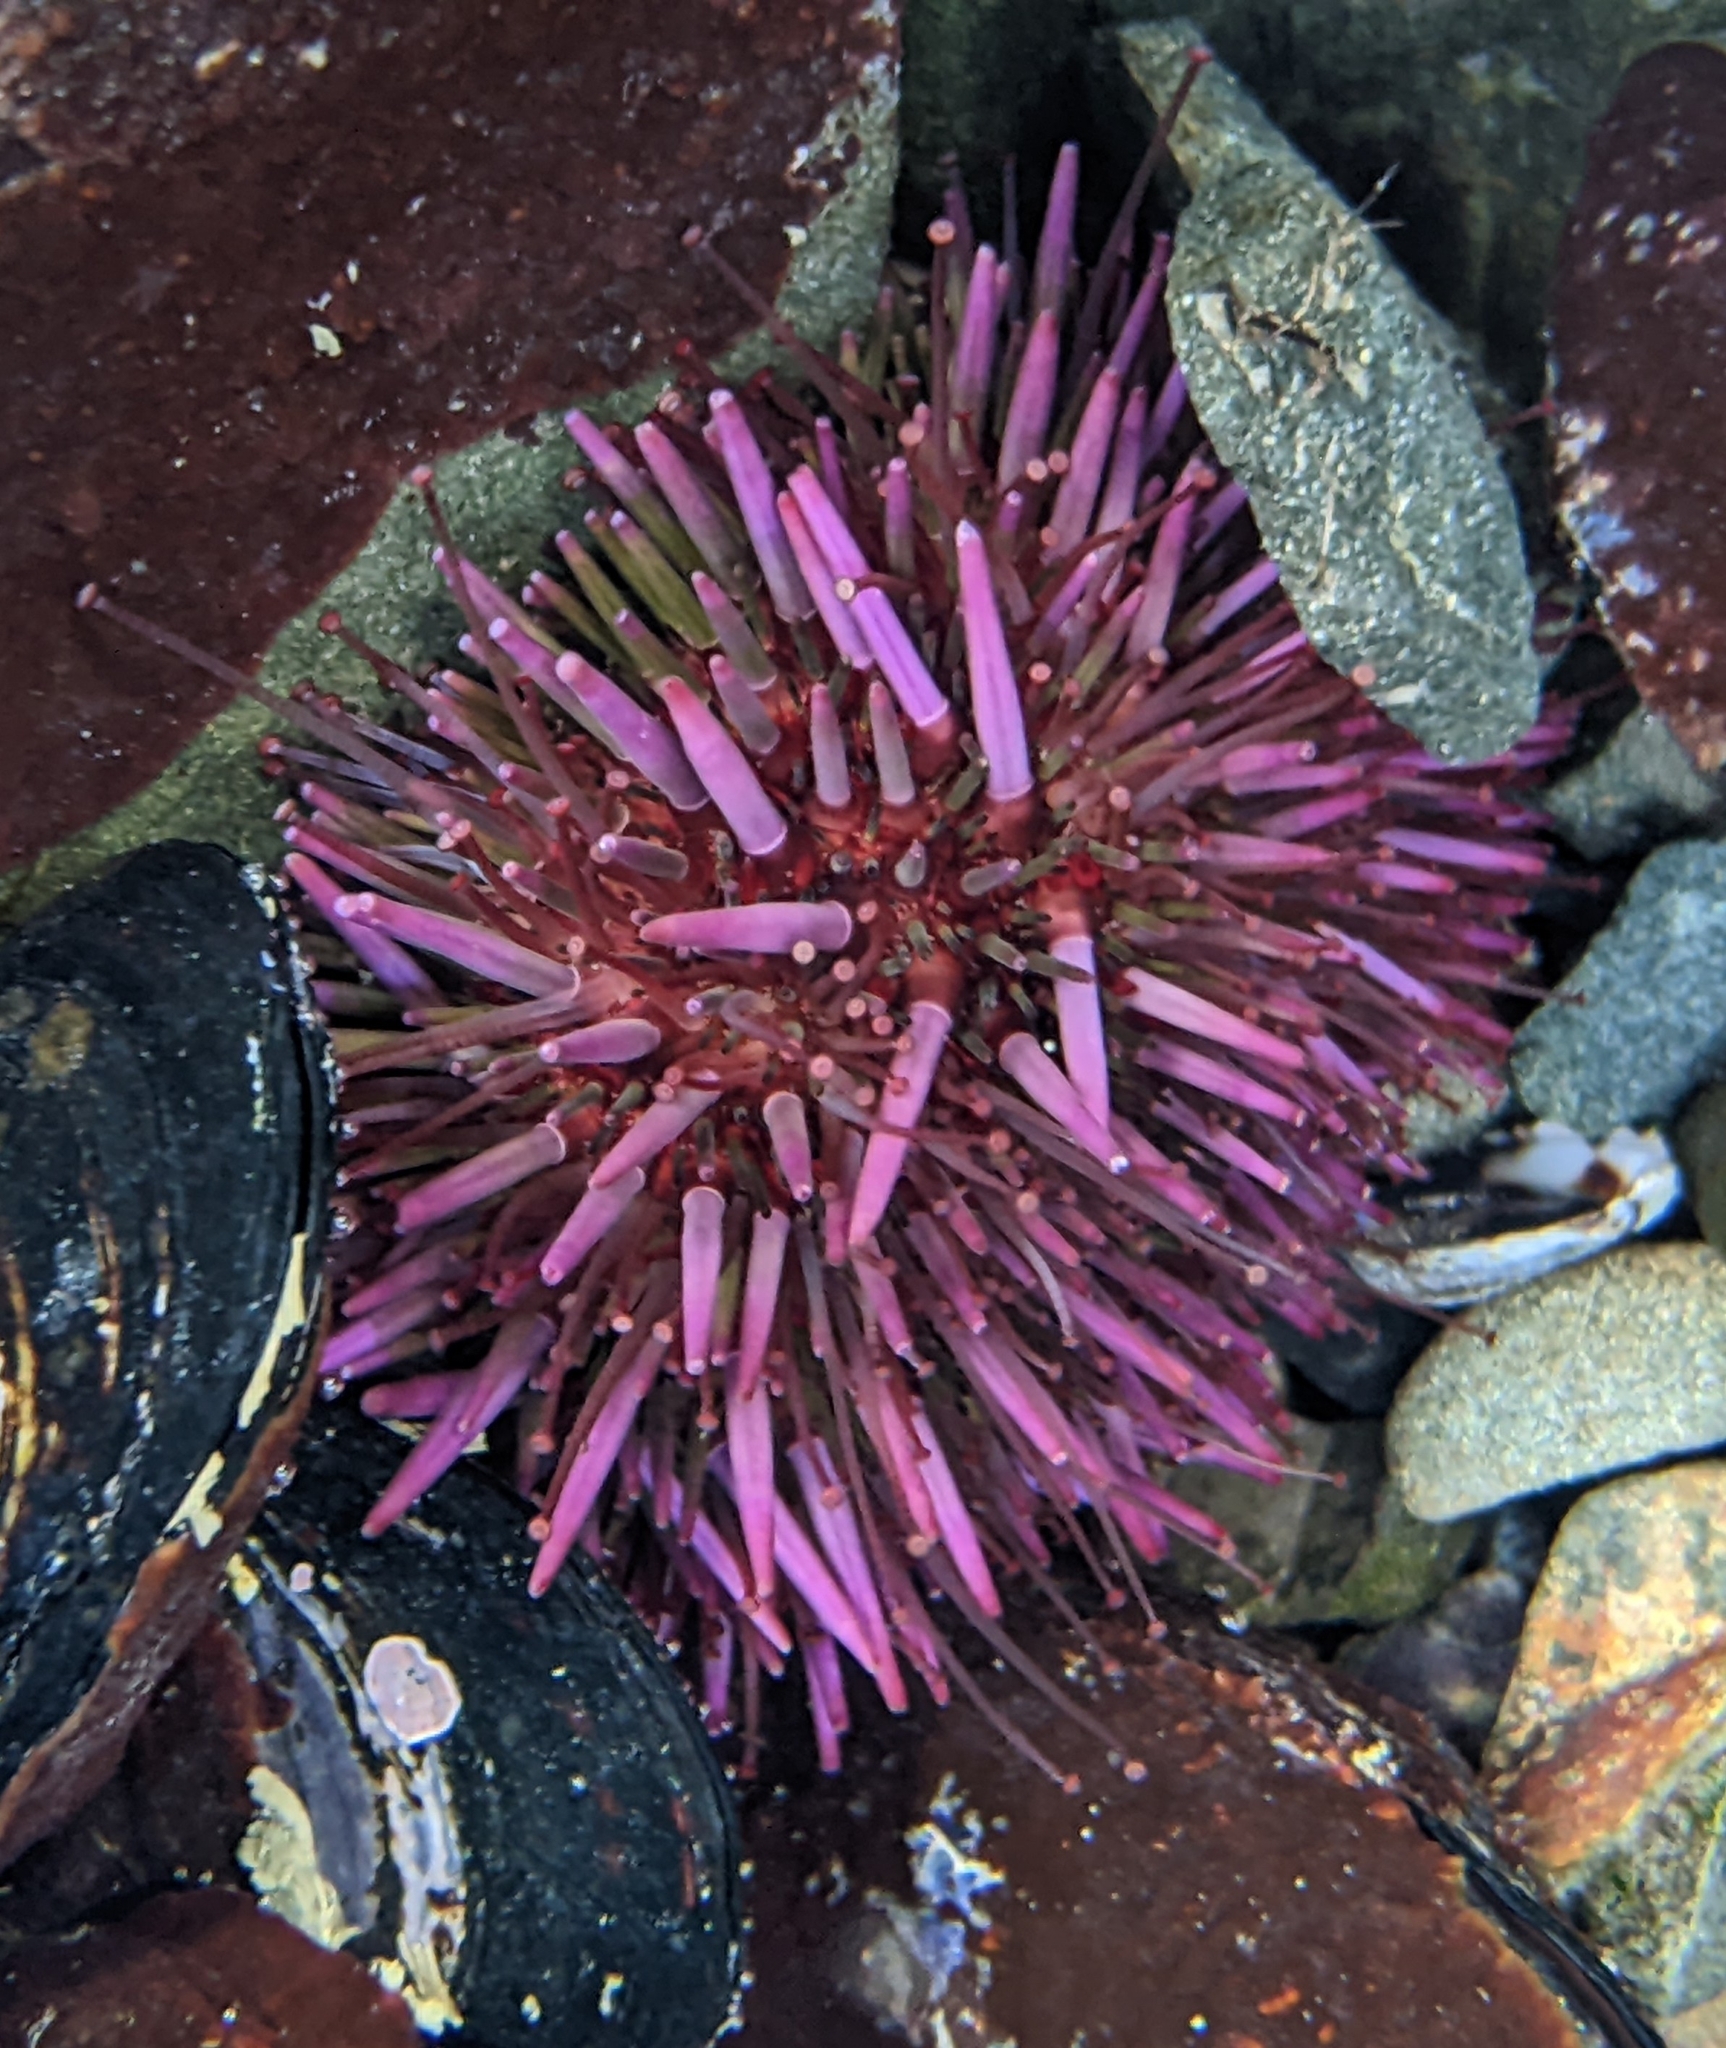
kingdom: Animalia
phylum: Echinodermata
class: Echinoidea
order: Camarodonta
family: Strongylocentrotidae
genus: Strongylocentrotus
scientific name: Strongylocentrotus purpuratus
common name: Purple sea urchin
